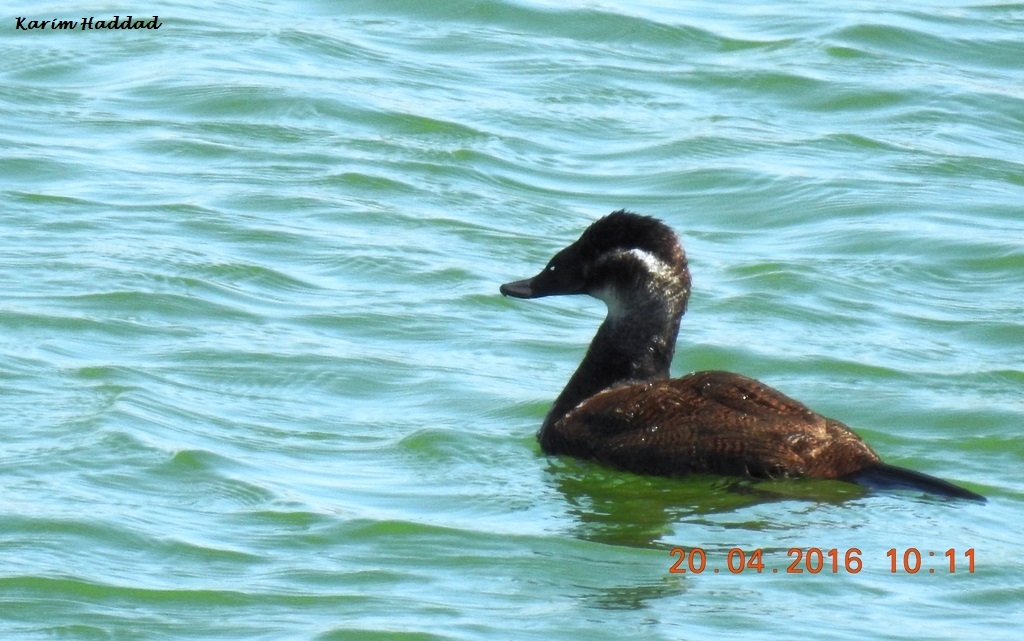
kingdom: Animalia
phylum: Chordata
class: Aves
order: Anseriformes
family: Anatidae
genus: Oxyura
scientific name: Oxyura leucocephala
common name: White-headed duck
